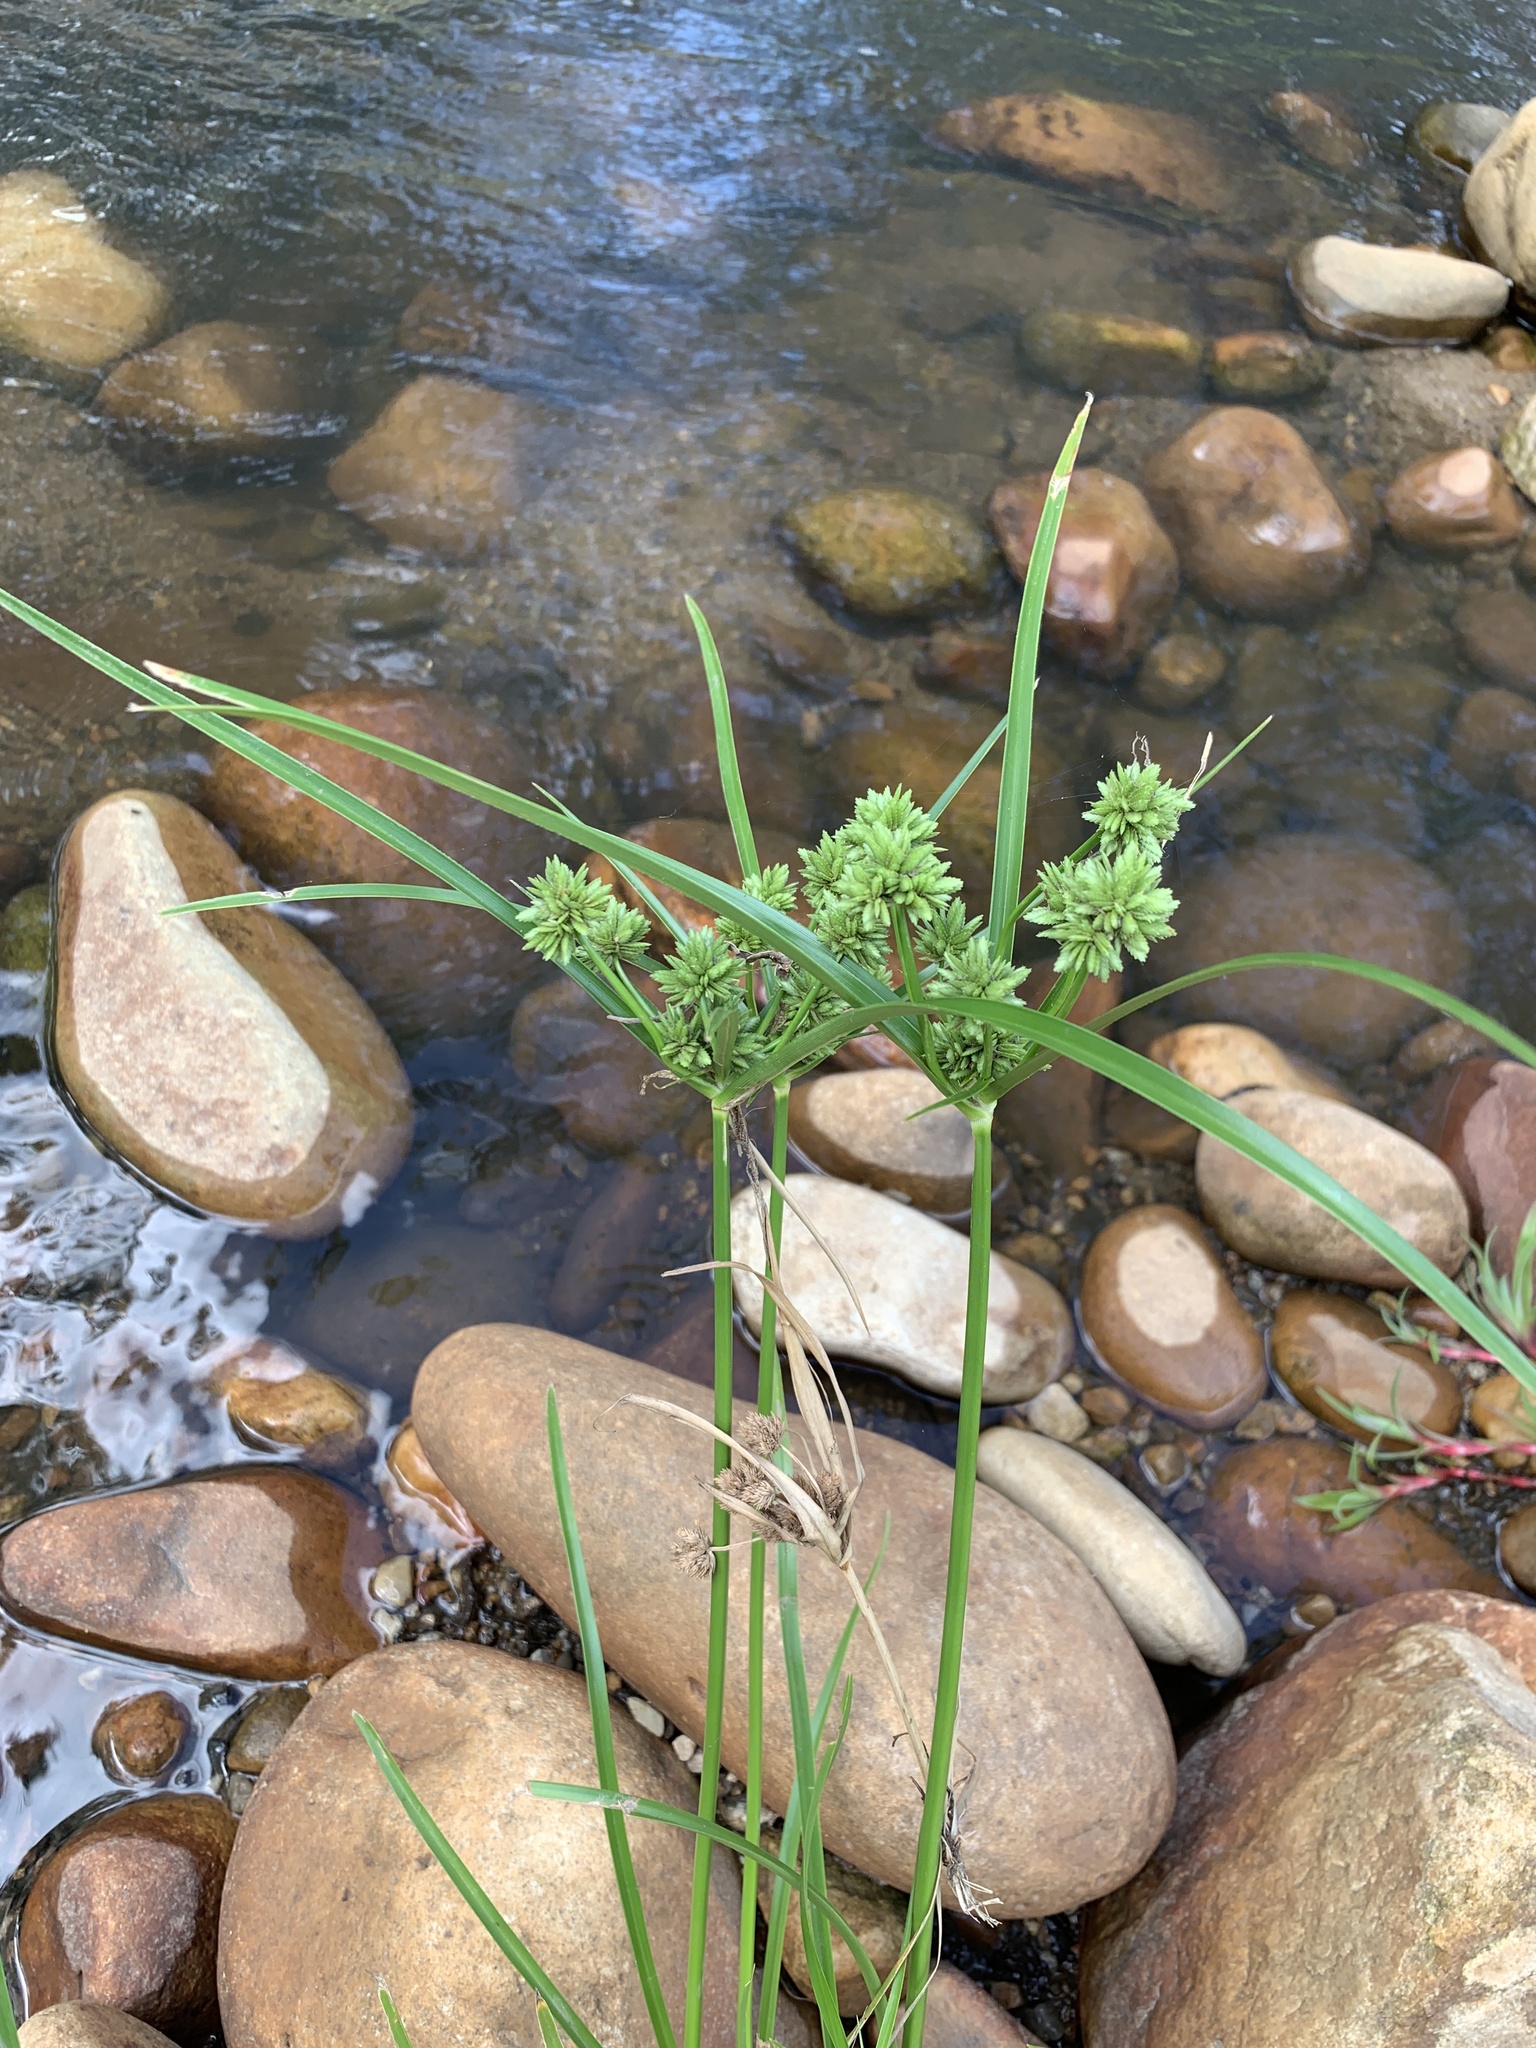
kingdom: Plantae
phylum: Tracheophyta
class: Liliopsida
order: Poales
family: Cyperaceae
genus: Cyperus
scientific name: Cyperus eragrostis
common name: Tall flatsedge
